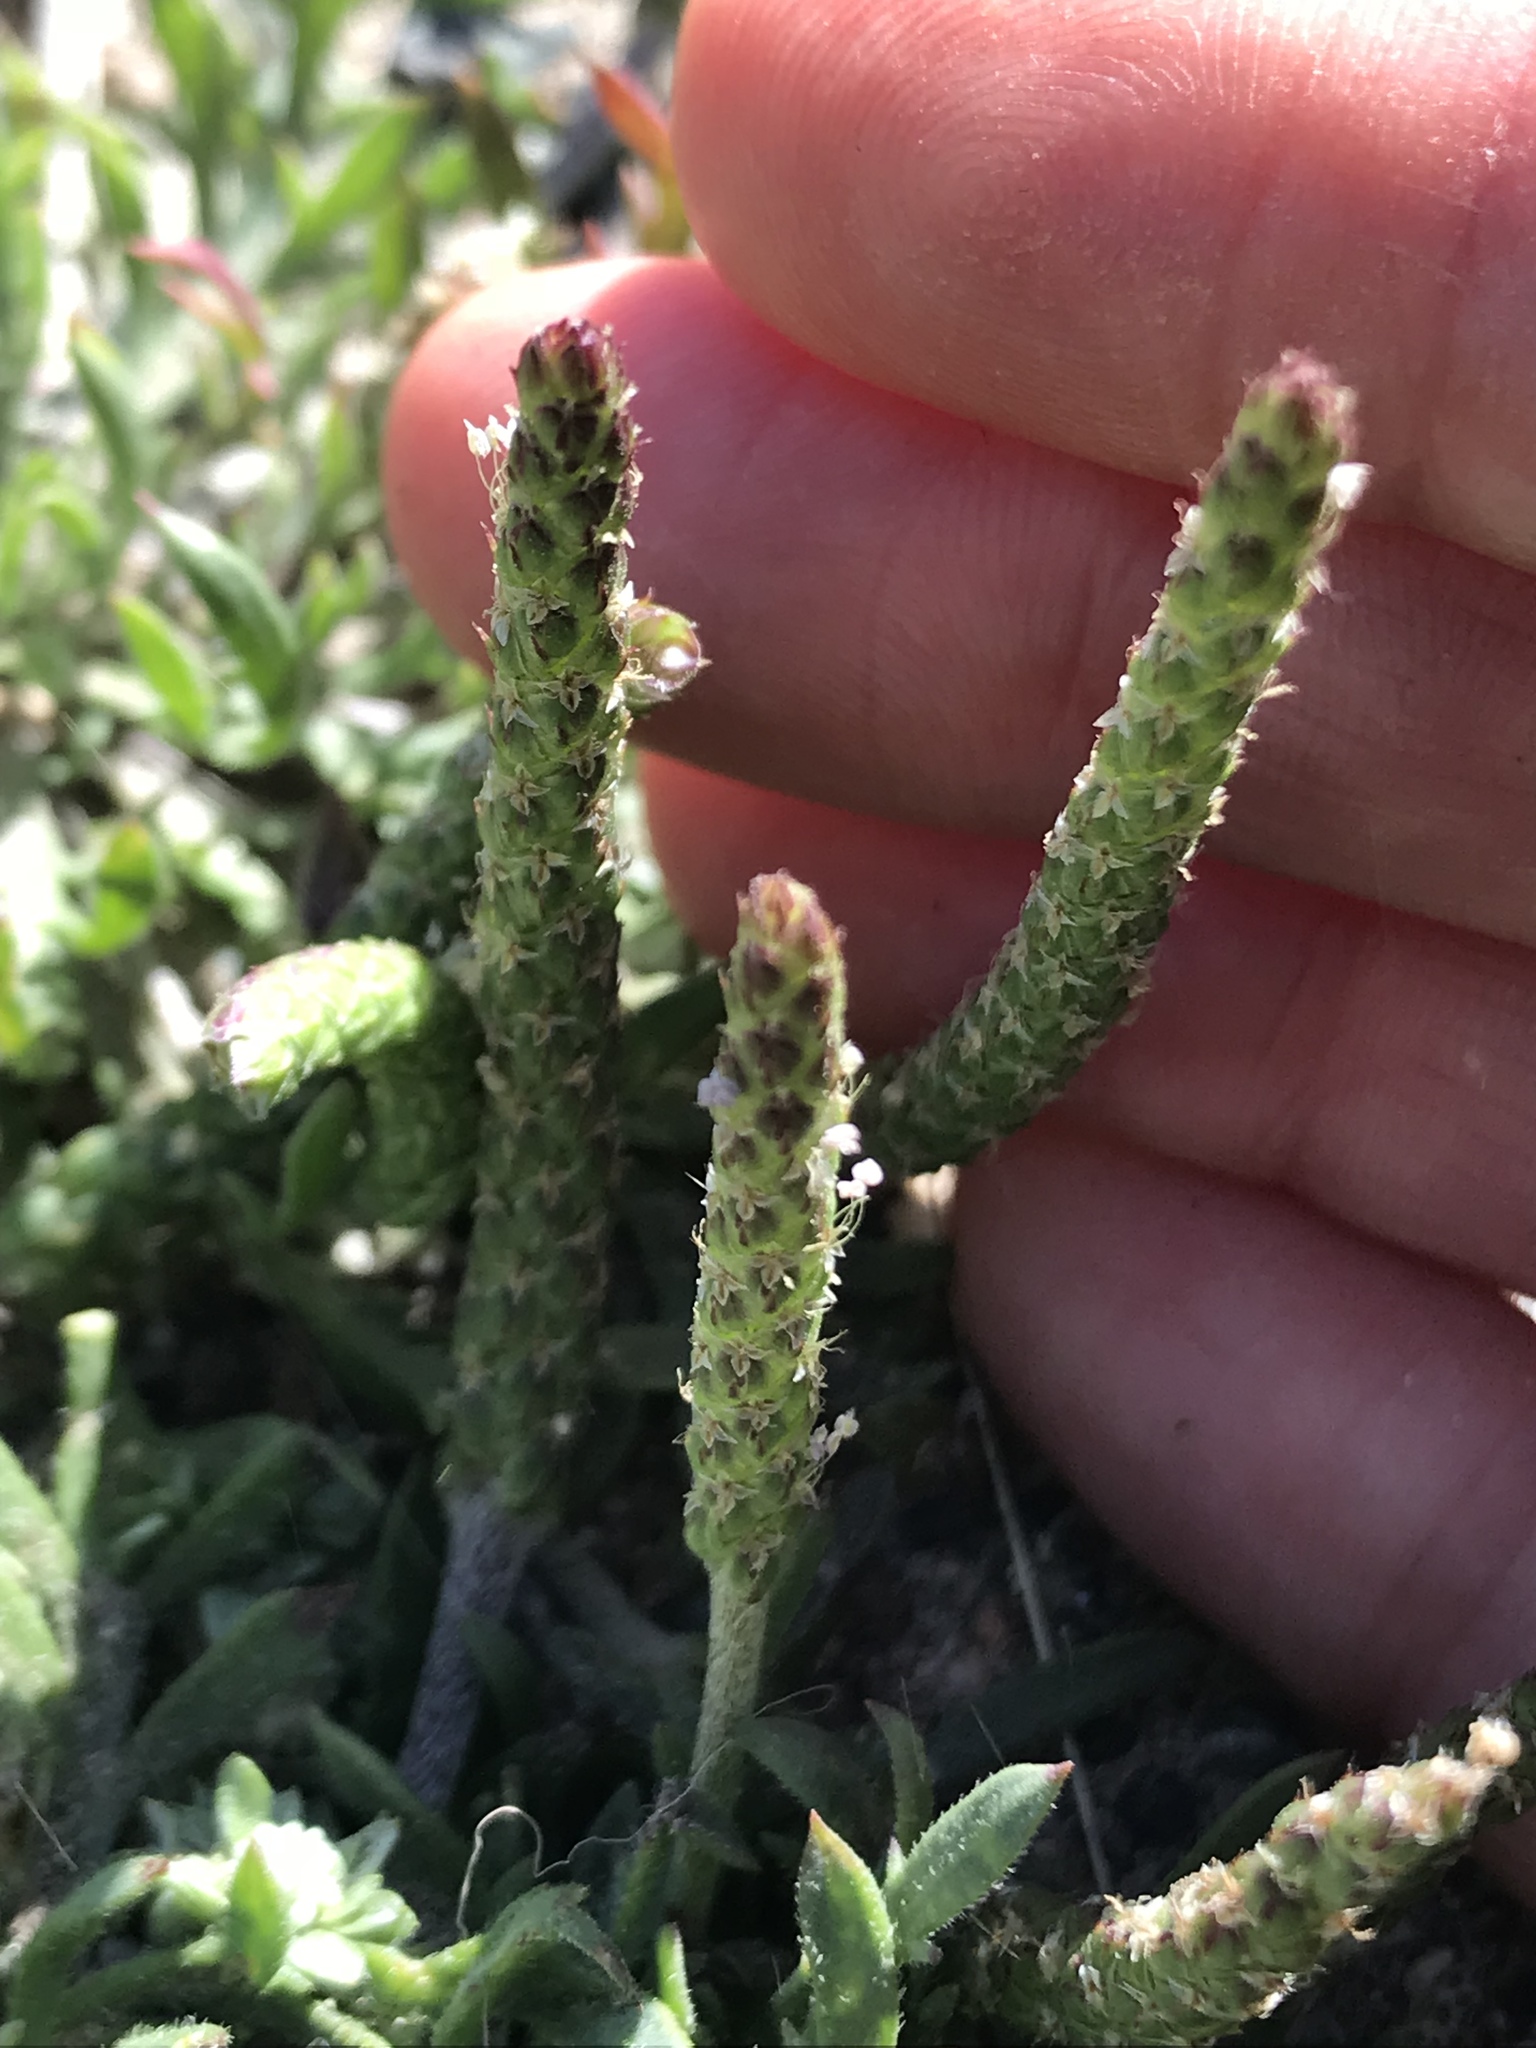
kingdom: Plantae
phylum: Tracheophyta
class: Magnoliopsida
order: Lamiales
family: Plantaginaceae
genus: Plantago
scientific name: Plantago coronopus
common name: Buck's-horn plantain
